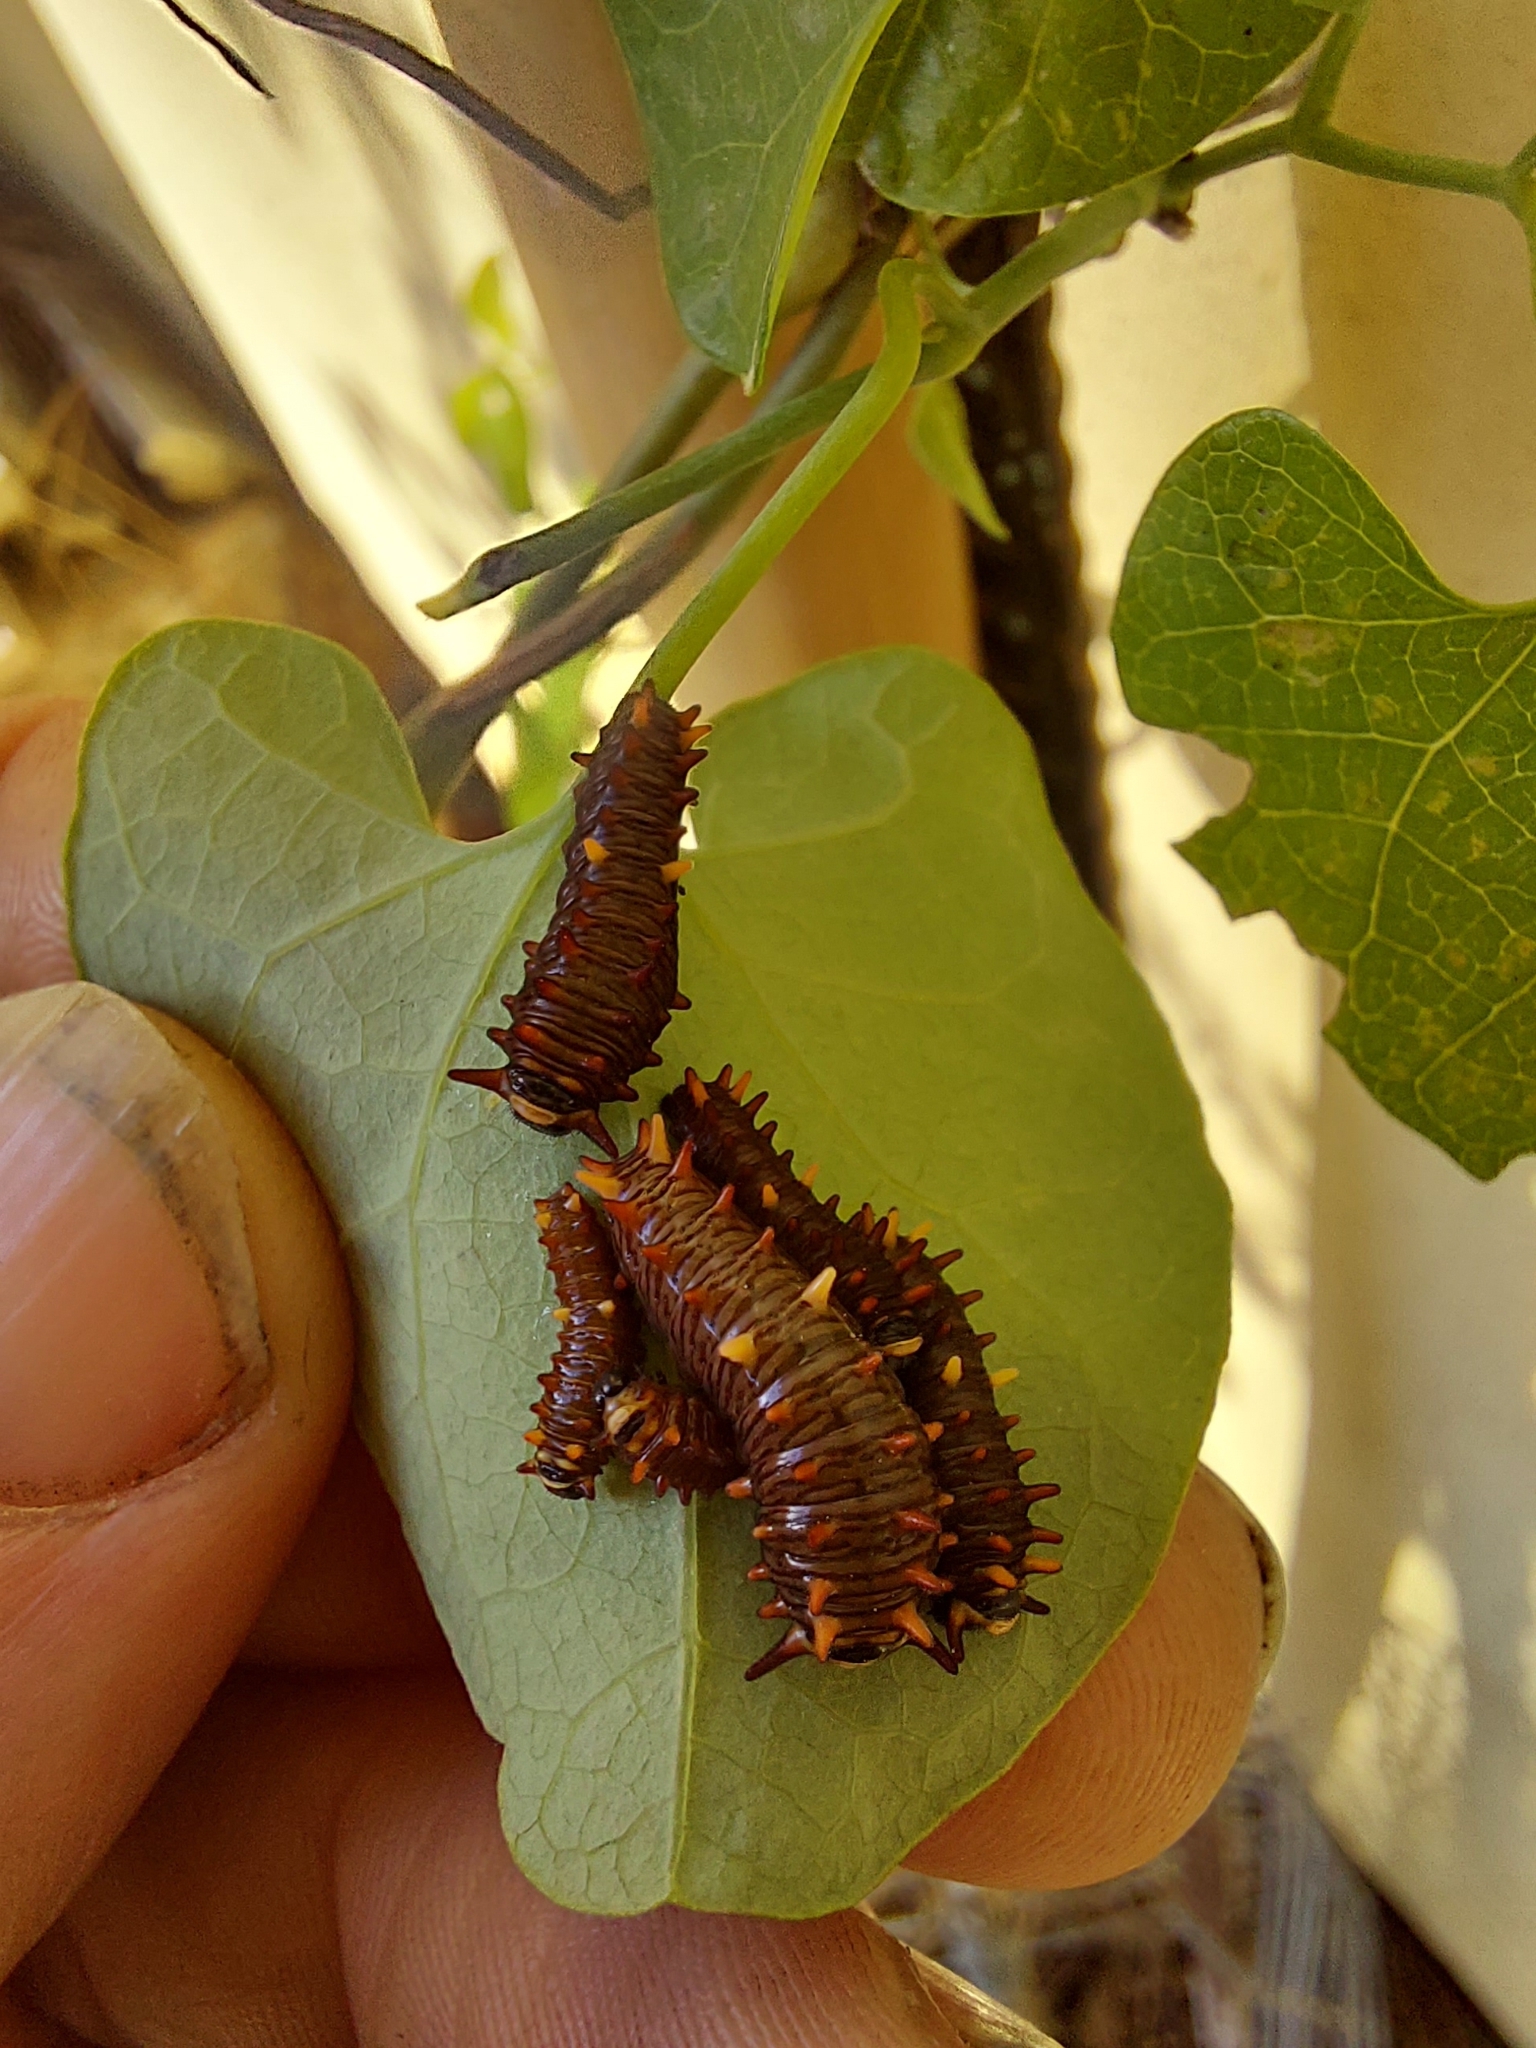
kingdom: Animalia
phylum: Arthropoda
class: Insecta
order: Lepidoptera
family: Papilionidae
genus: Battus
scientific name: Battus polydamas
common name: Polydamas swallowtail
